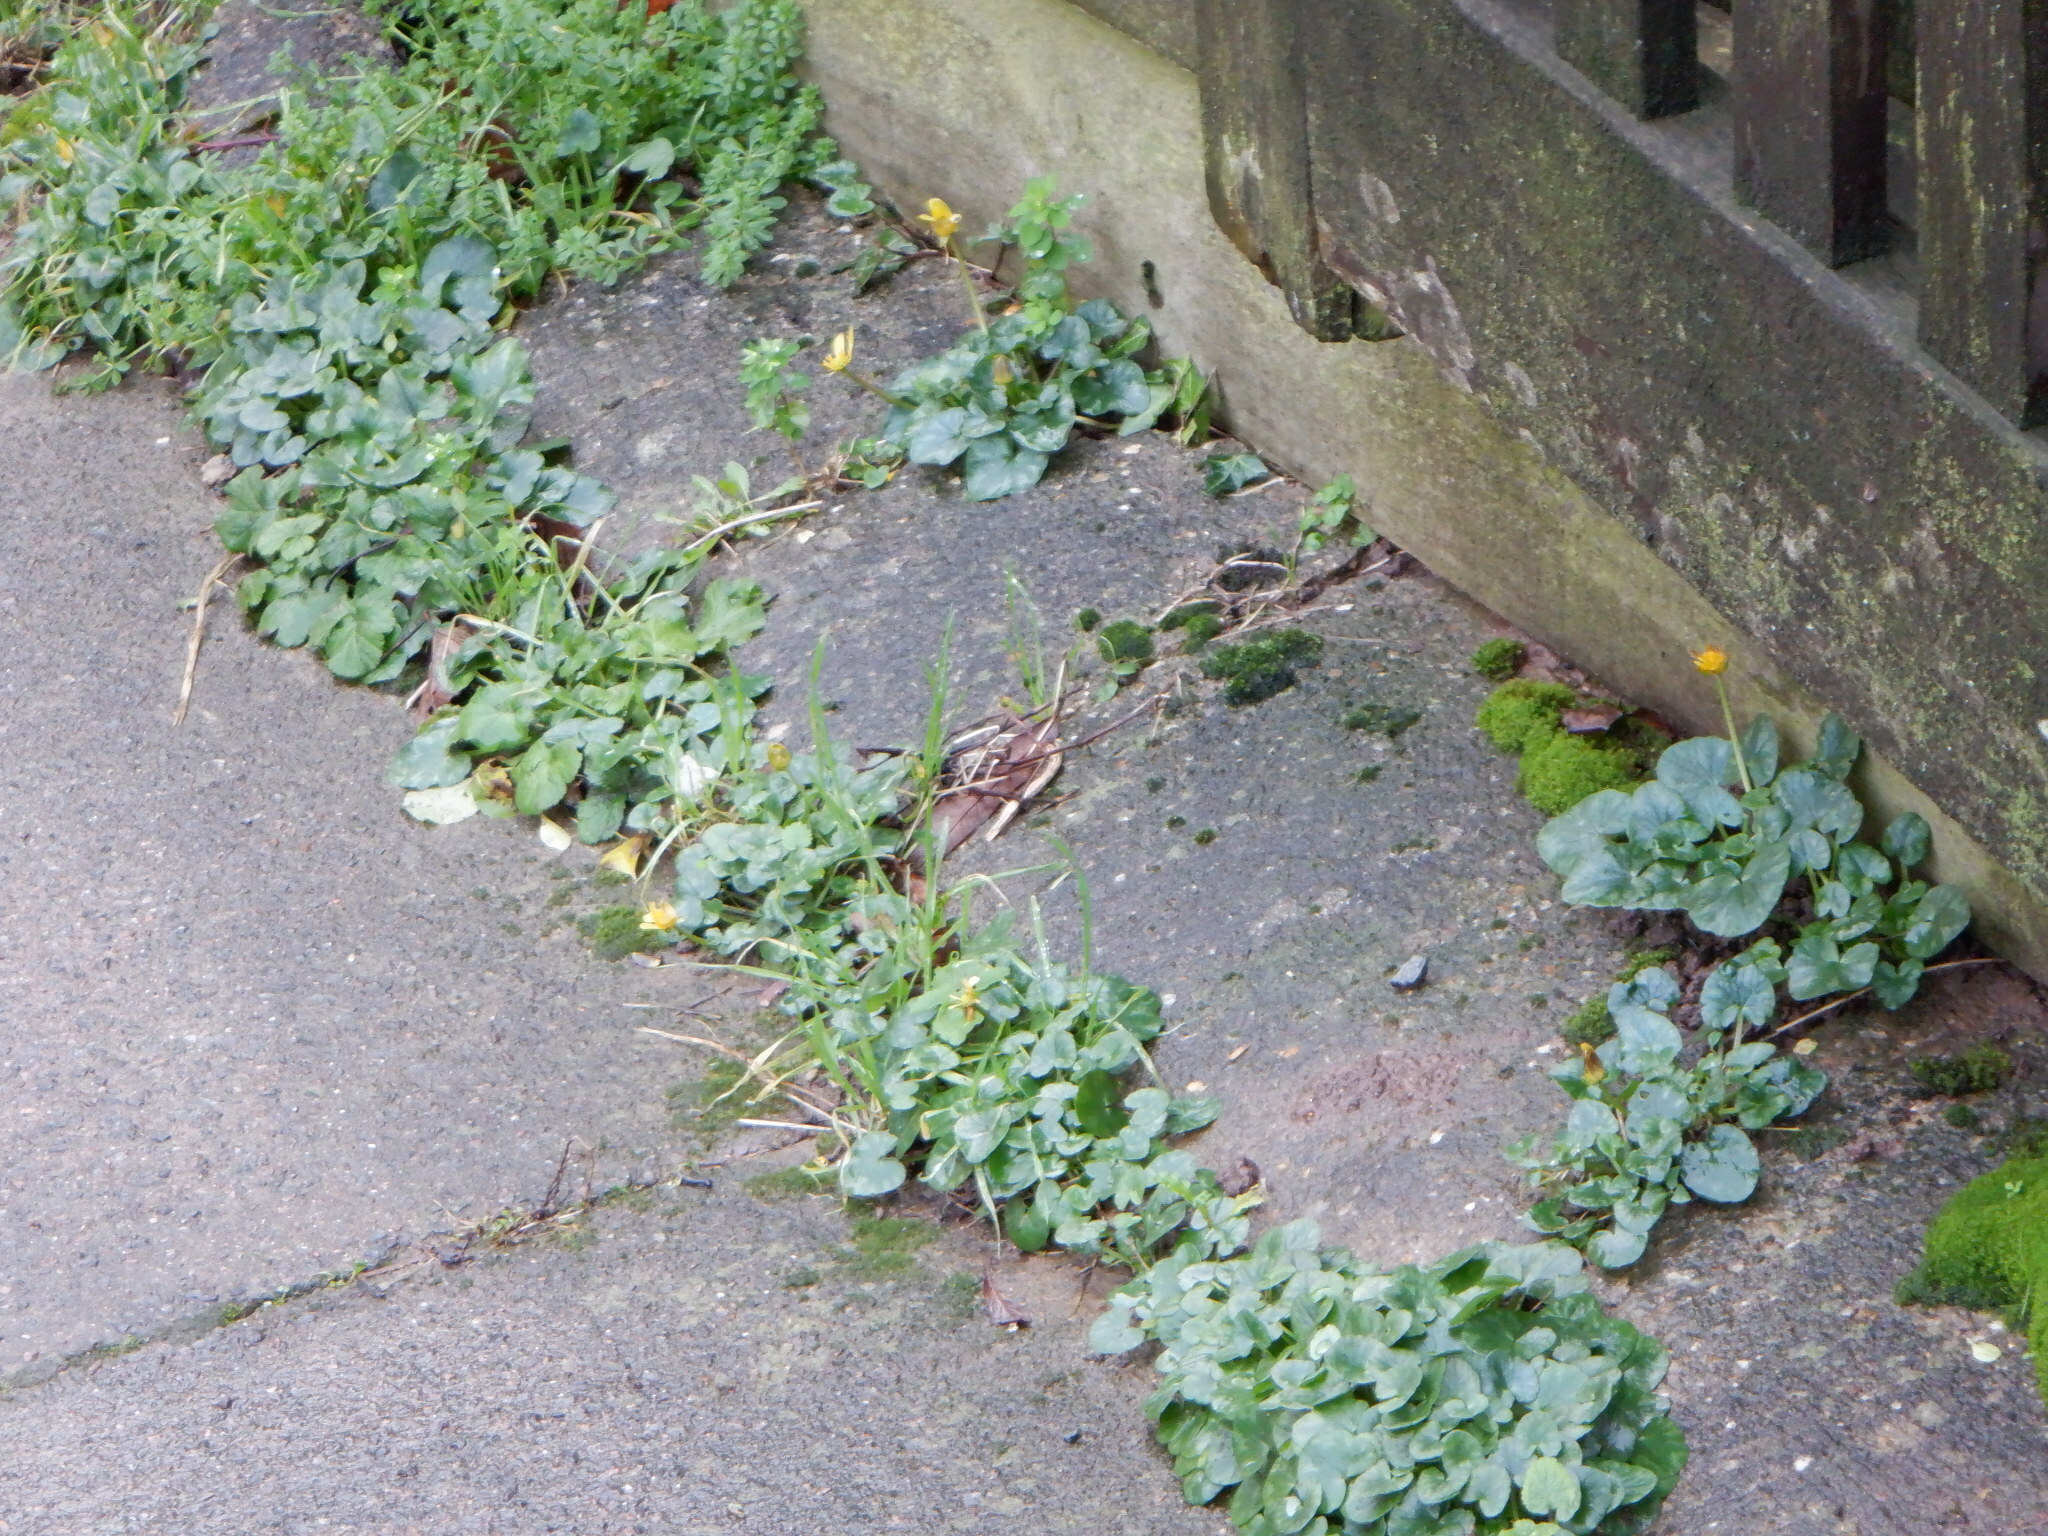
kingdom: Plantae
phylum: Tracheophyta
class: Magnoliopsida
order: Ranunculales
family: Ranunculaceae
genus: Ficaria
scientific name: Ficaria verna
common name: Lesser celandine
